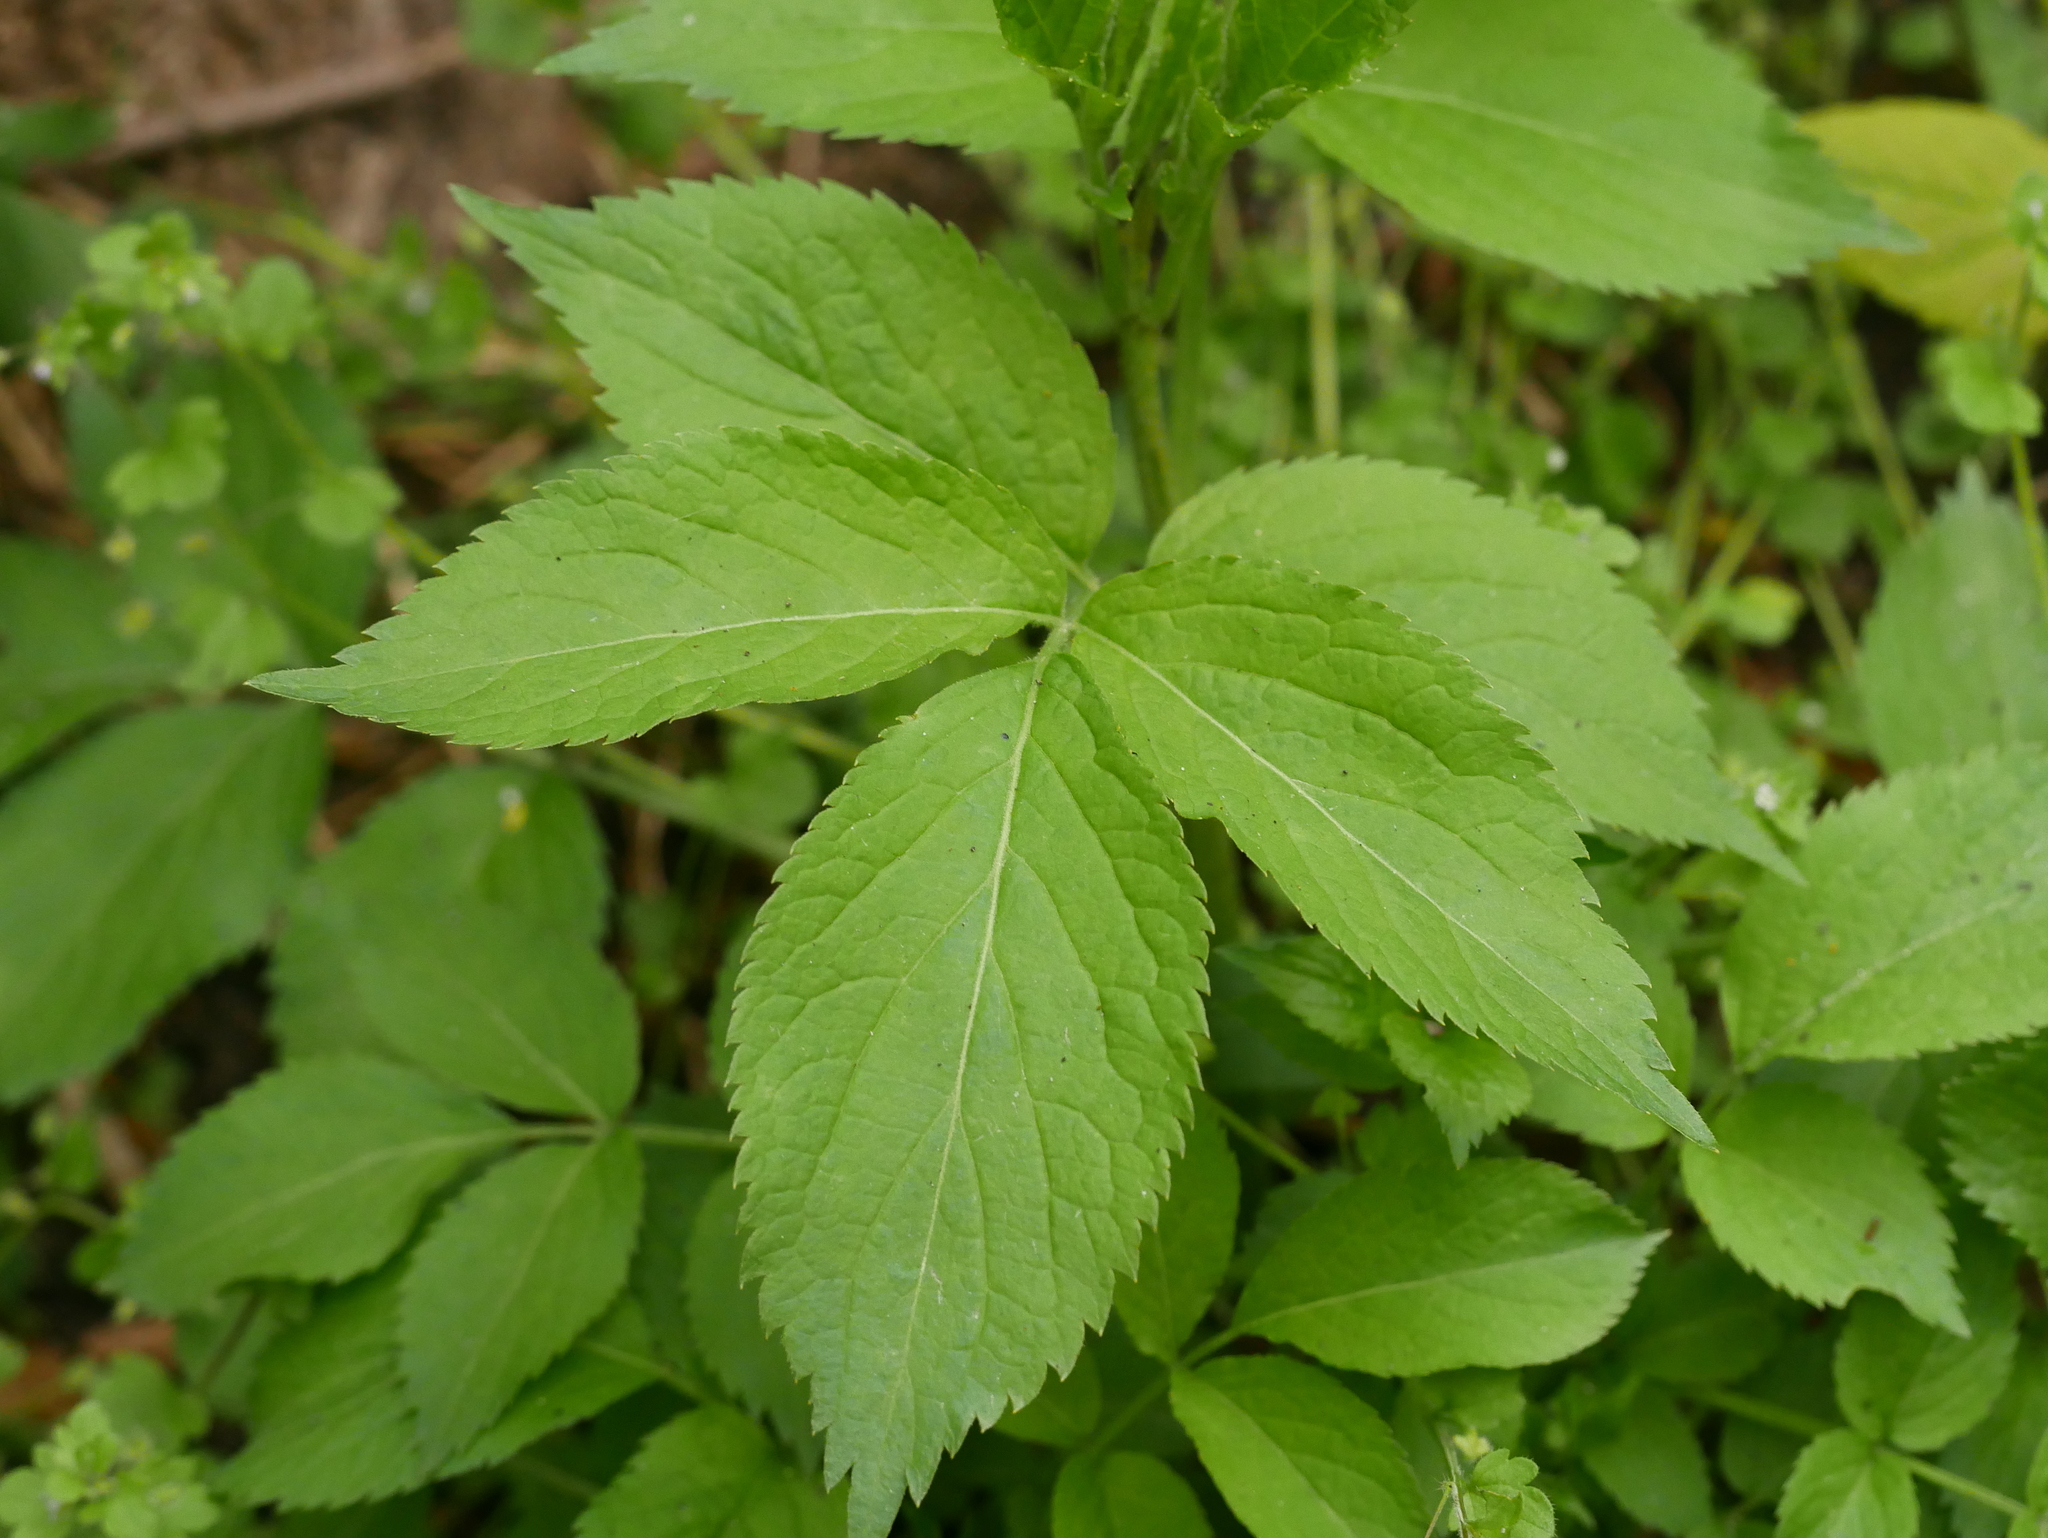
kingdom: Plantae
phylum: Tracheophyta
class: Magnoliopsida
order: Dipsacales
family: Viburnaceae
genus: Sambucus
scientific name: Sambucus nigra
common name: Elder
